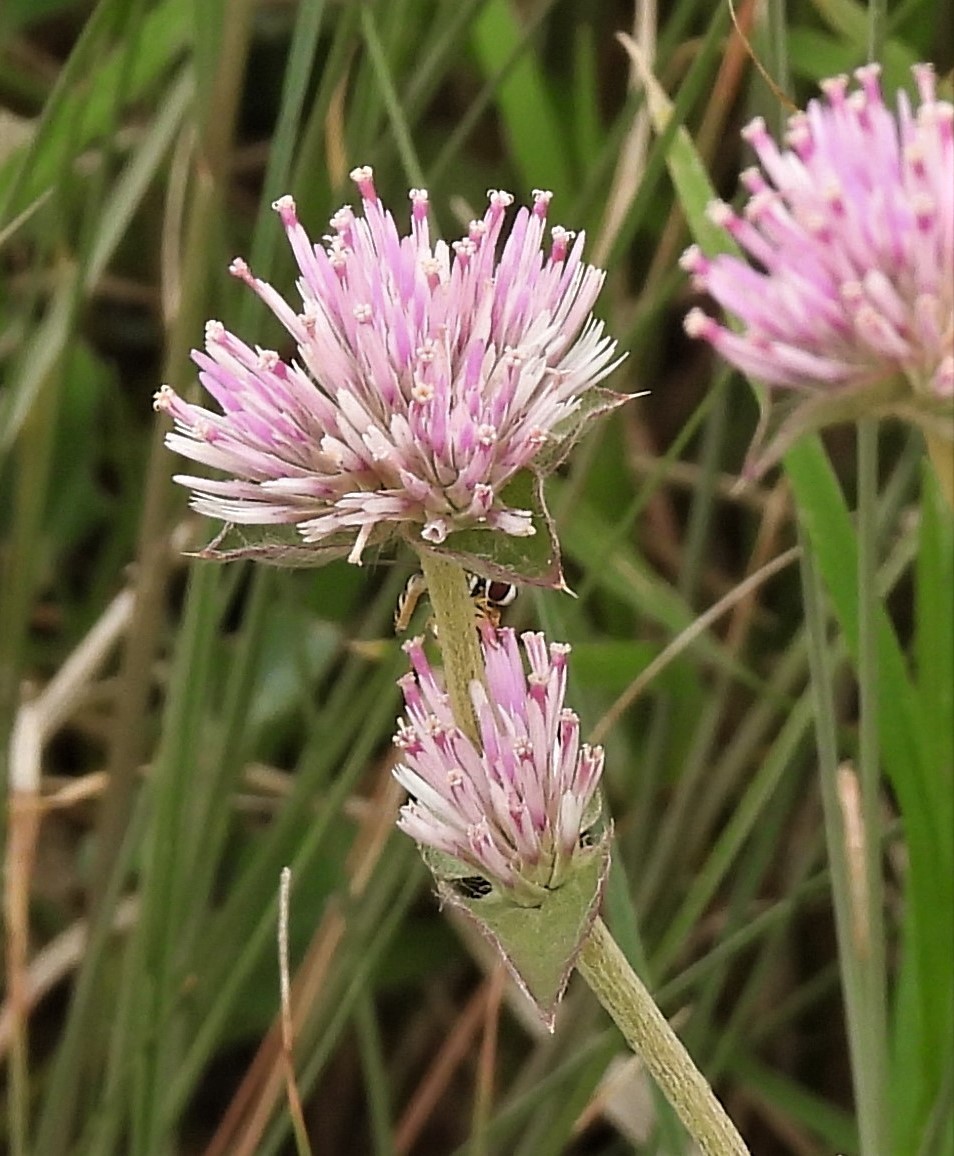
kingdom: Plantae
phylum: Tracheophyta
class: Magnoliopsida
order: Caryophyllales
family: Amaranthaceae
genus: Gomphrena
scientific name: Gomphrena pulchella
